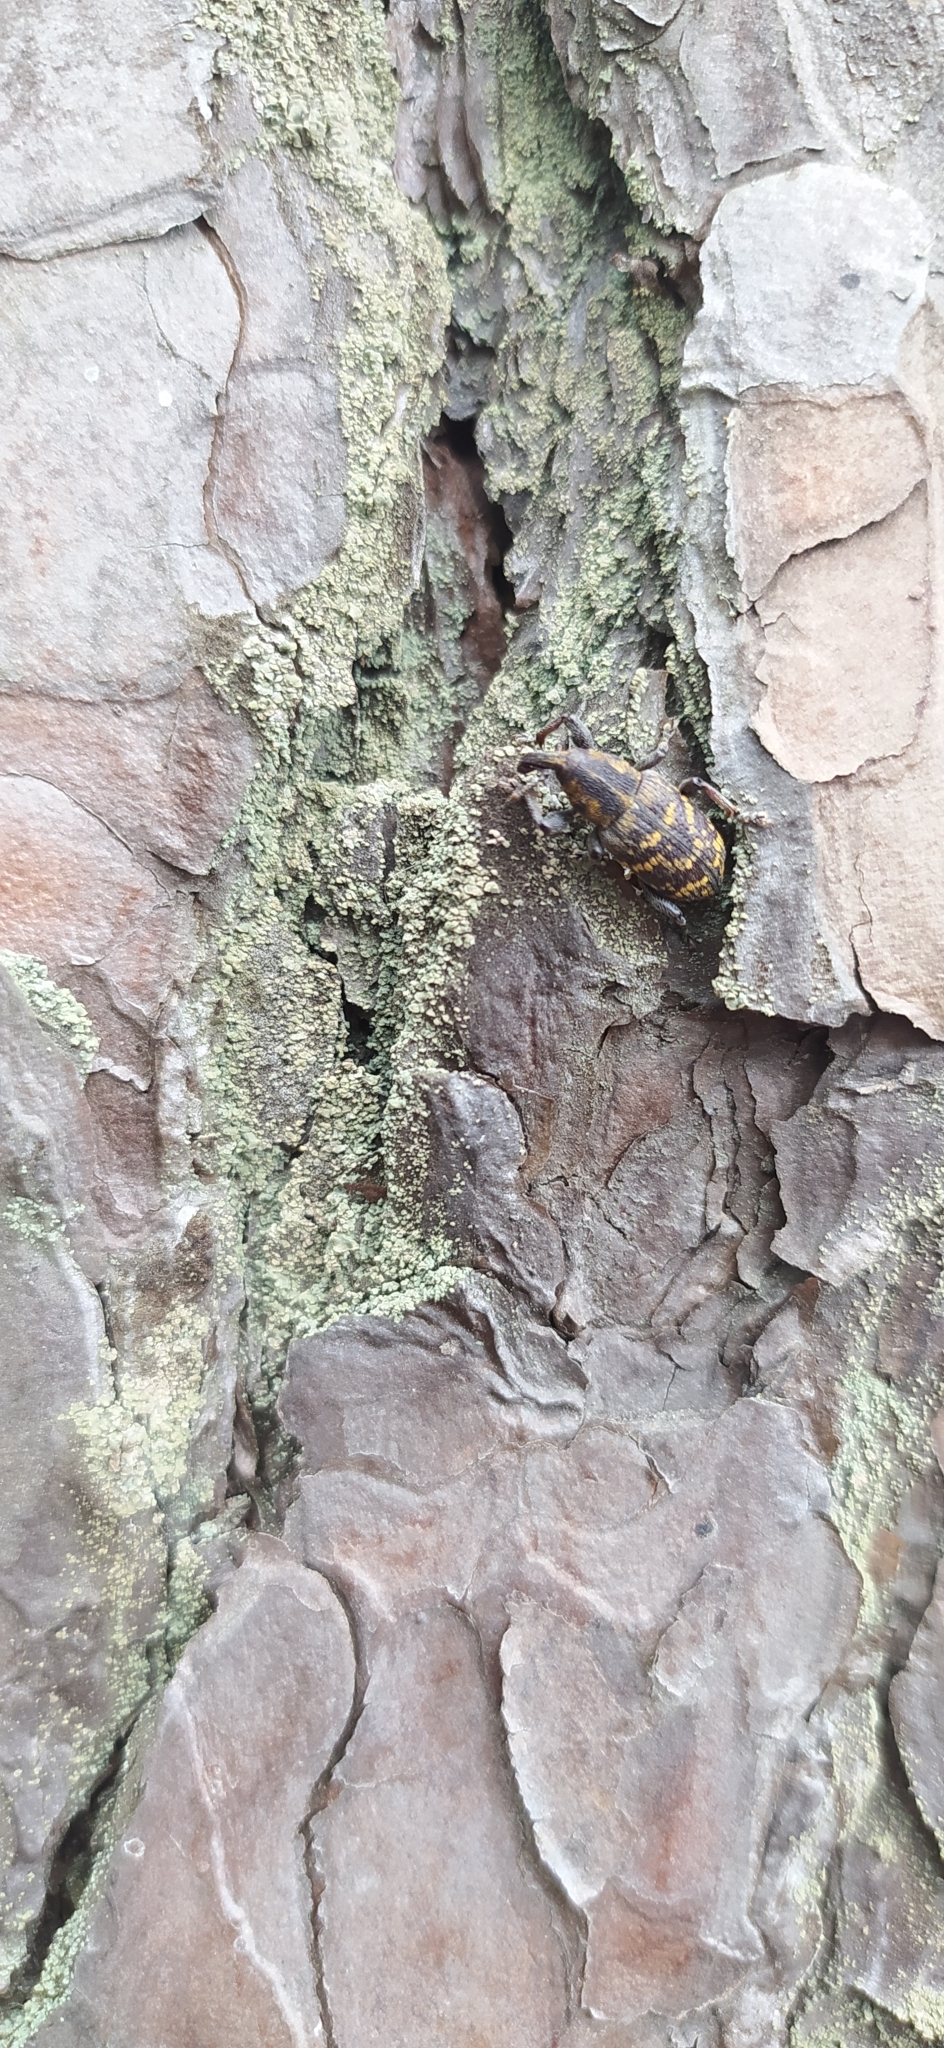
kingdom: Animalia
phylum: Arthropoda
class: Insecta
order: Coleoptera
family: Curculionidae
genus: Hylobius
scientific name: Hylobius abietis
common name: Large pine weevil
